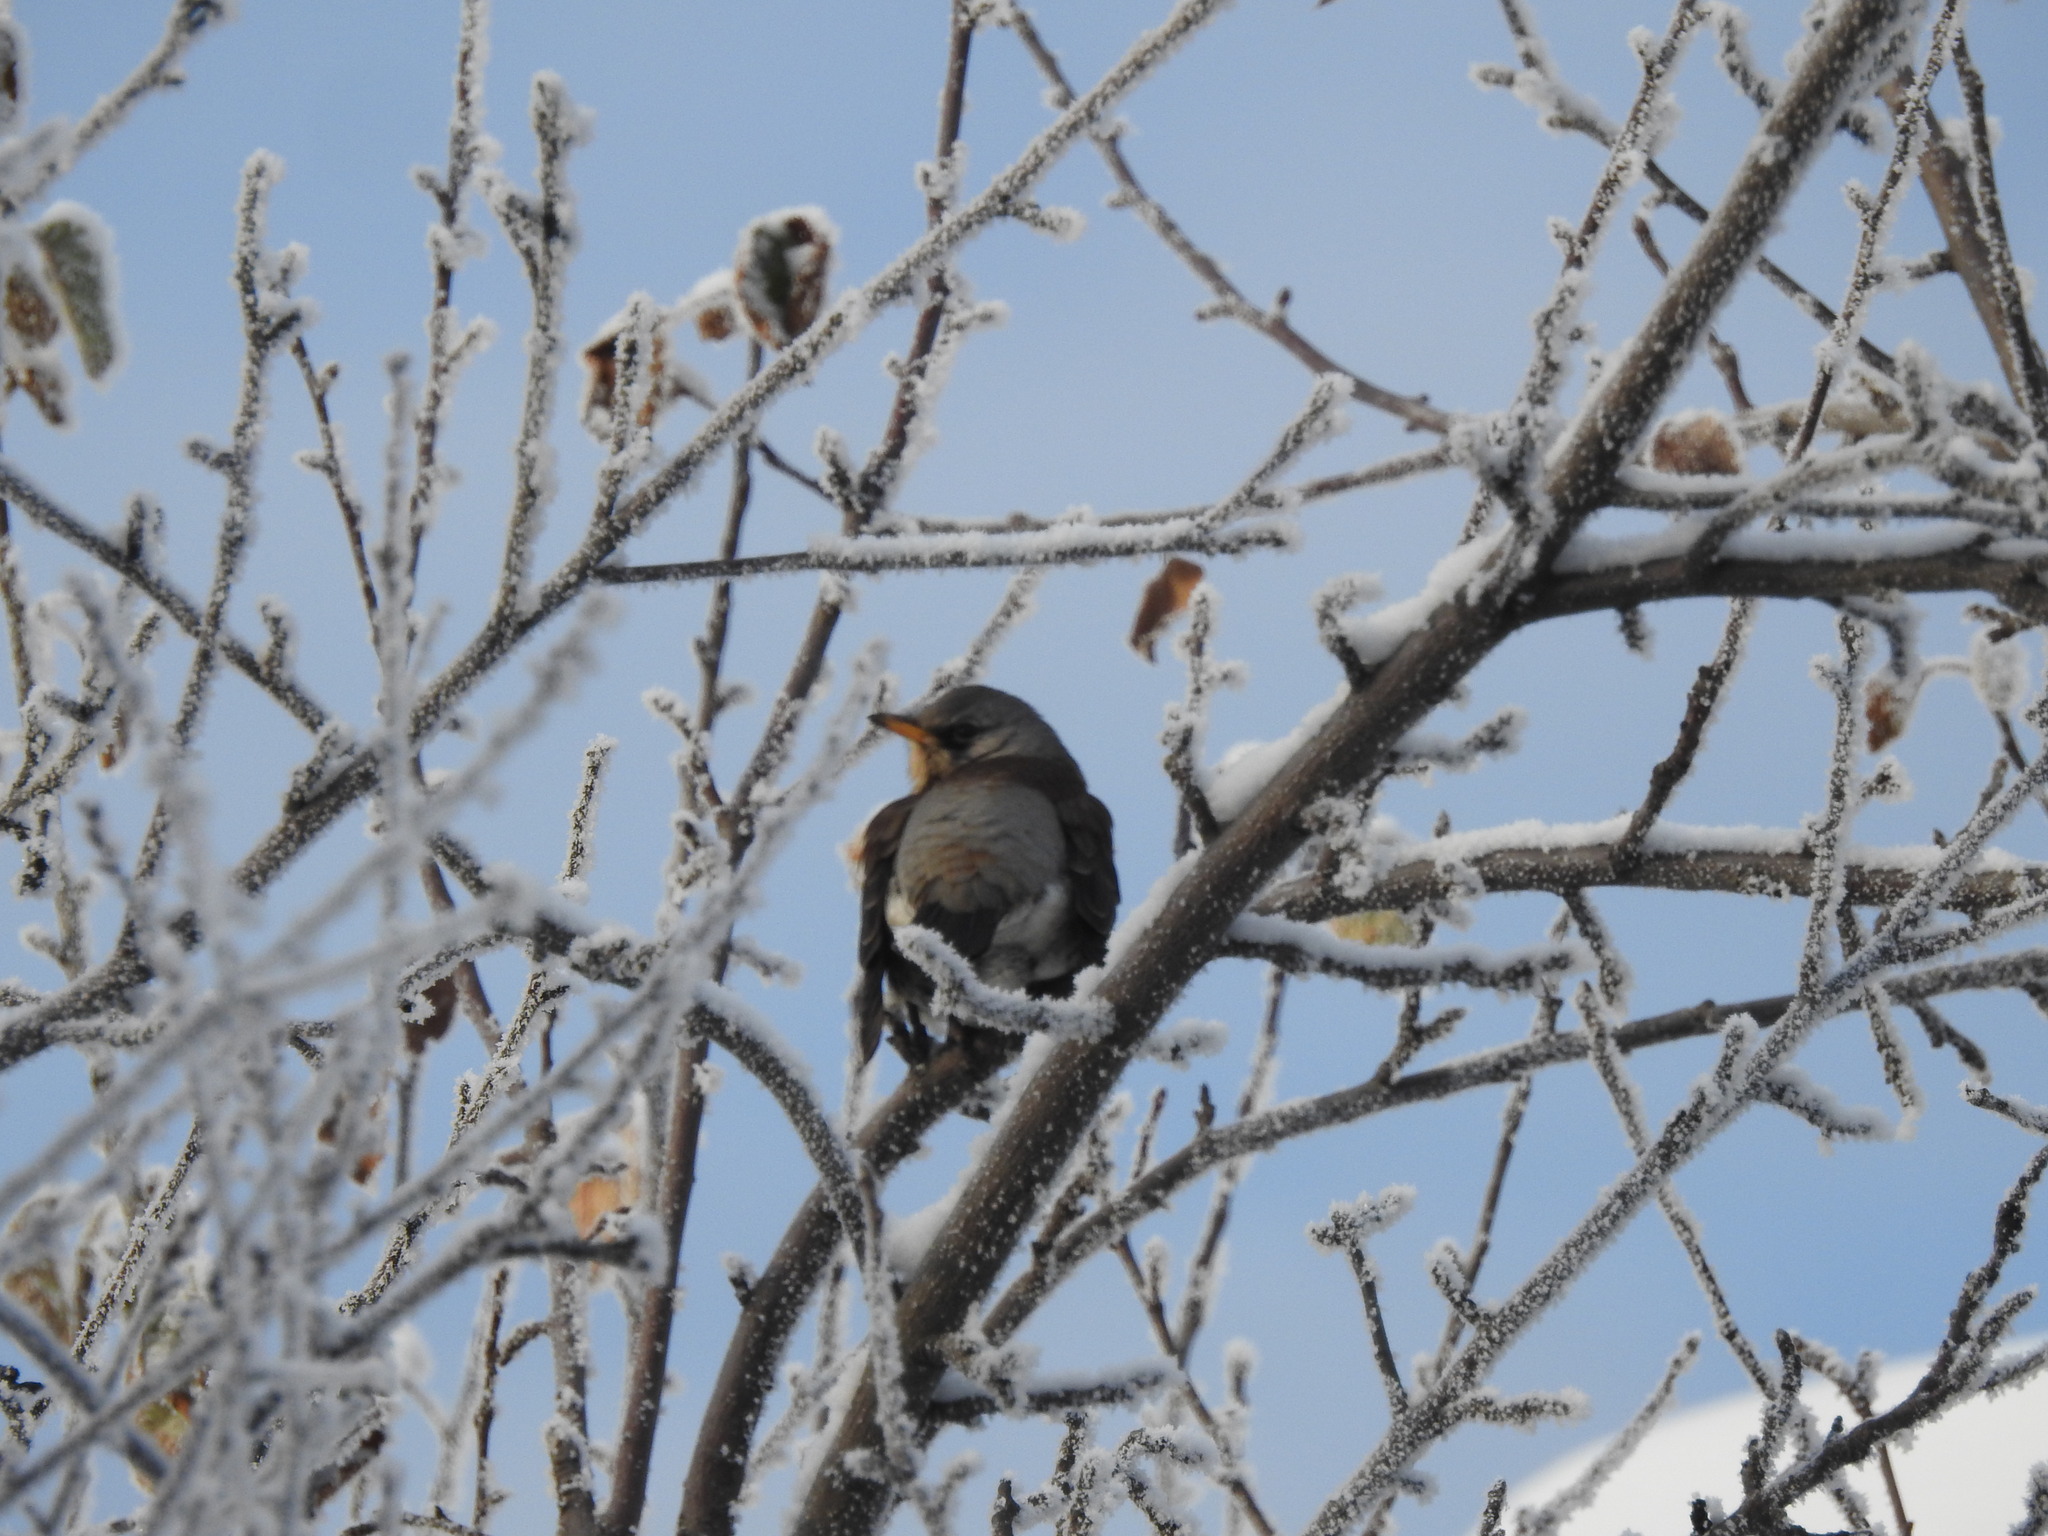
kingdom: Animalia
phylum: Chordata
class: Aves
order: Passeriformes
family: Turdidae
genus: Turdus
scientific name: Turdus pilaris
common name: Fieldfare
